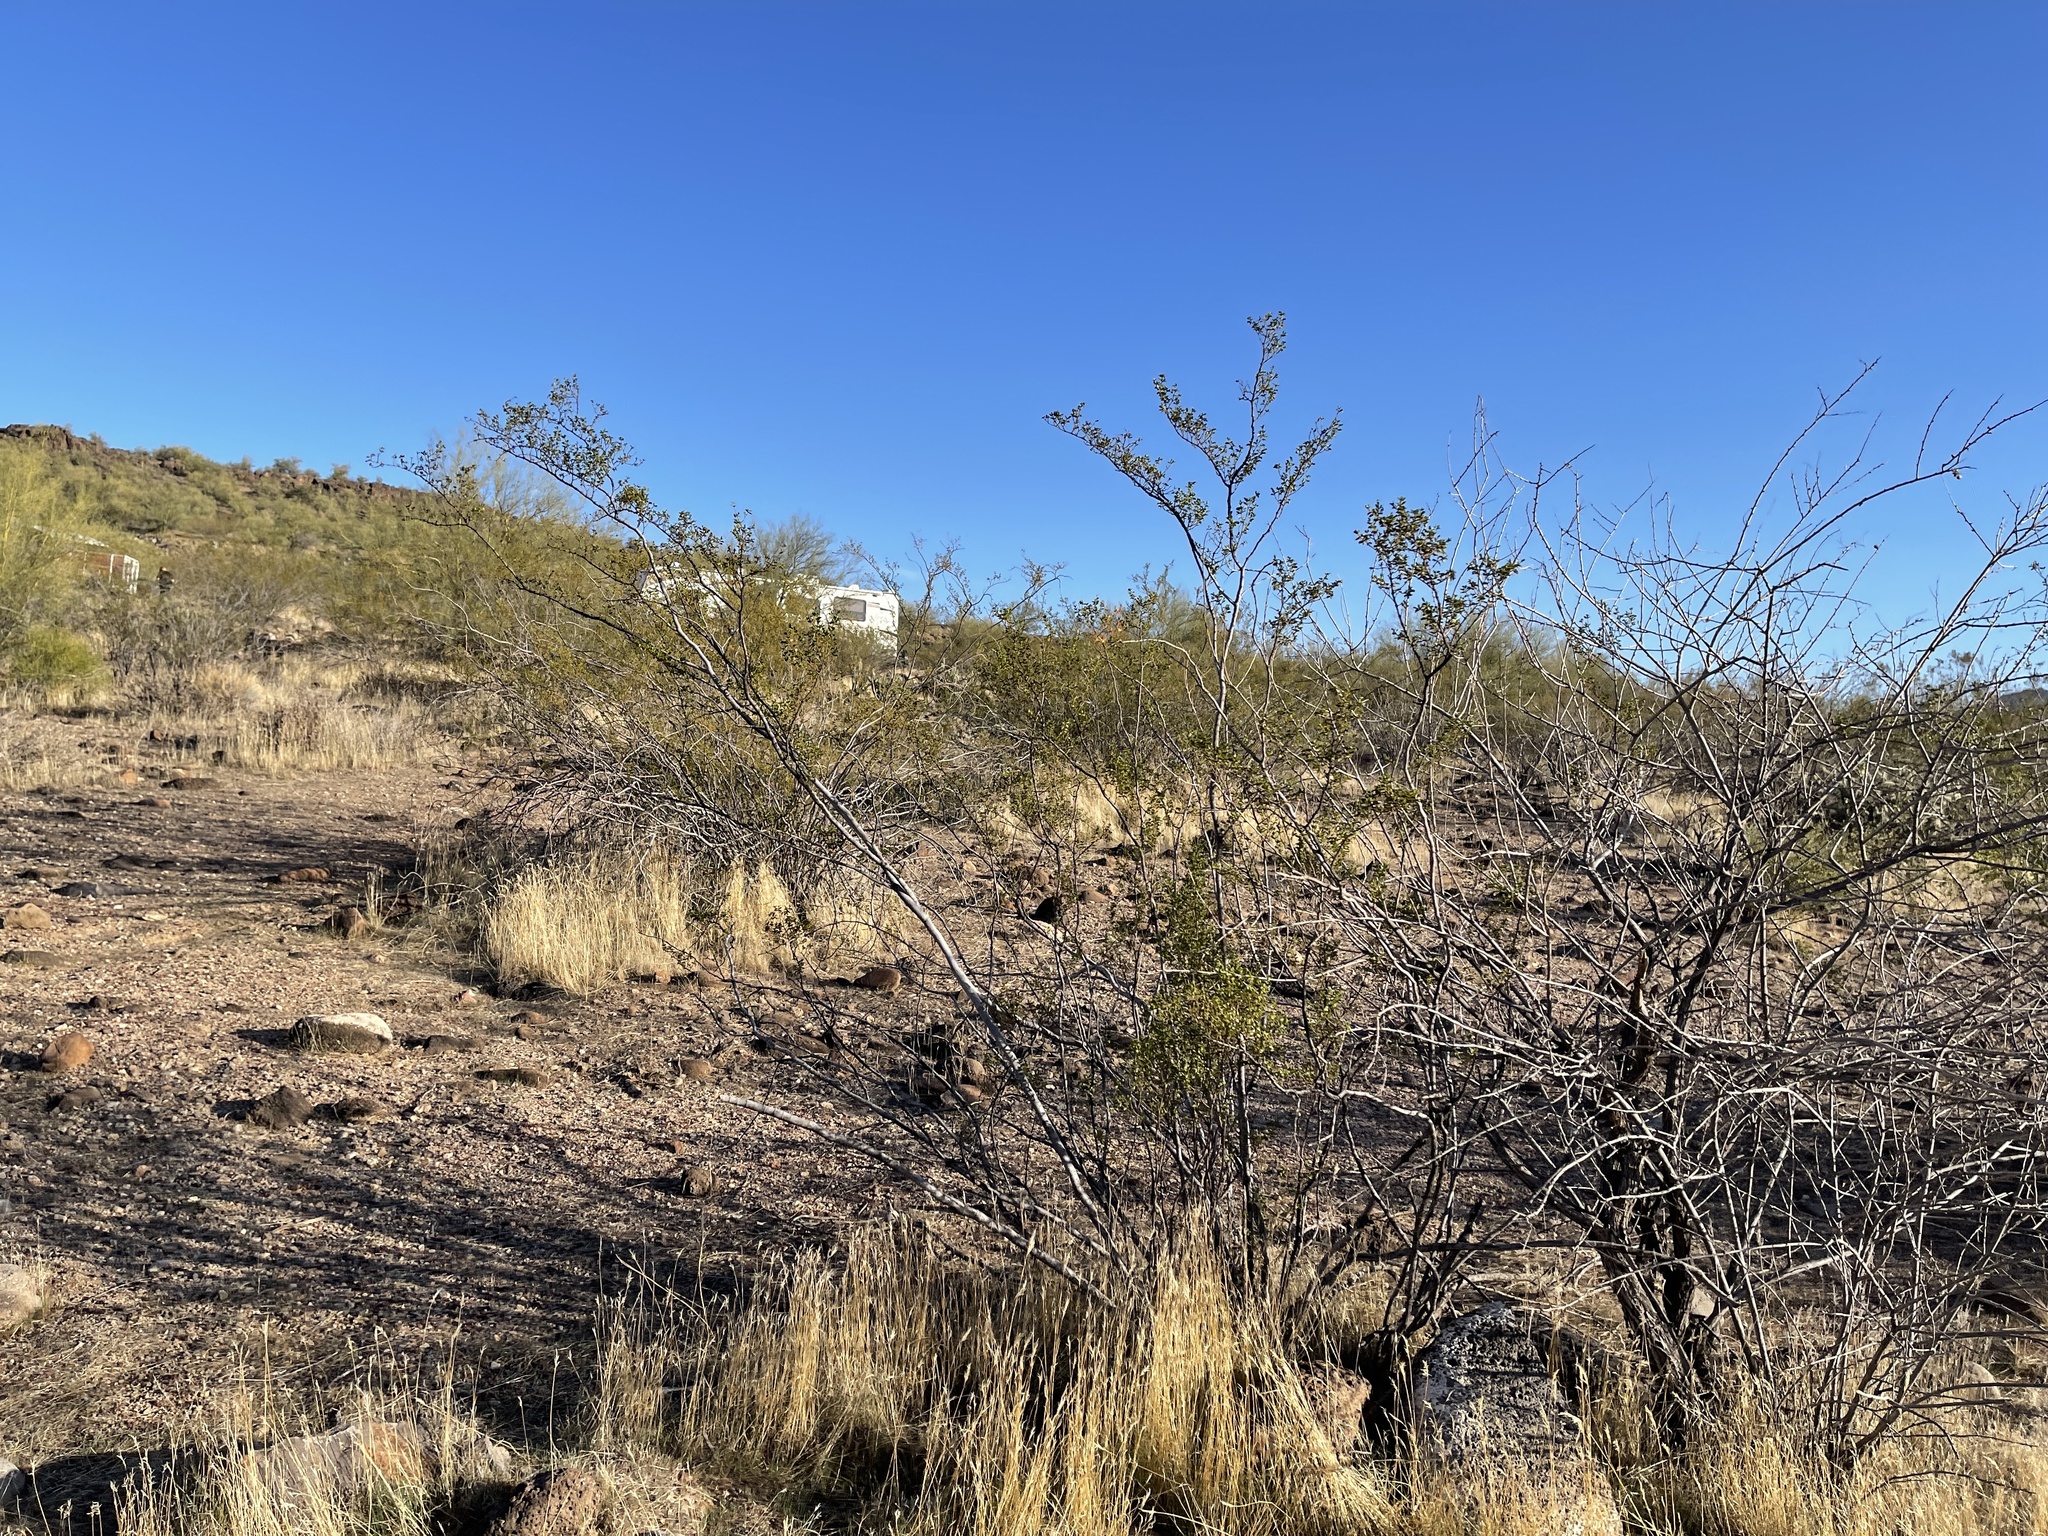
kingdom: Plantae
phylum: Tracheophyta
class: Magnoliopsida
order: Zygophyllales
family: Zygophyllaceae
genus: Larrea
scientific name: Larrea tridentata
